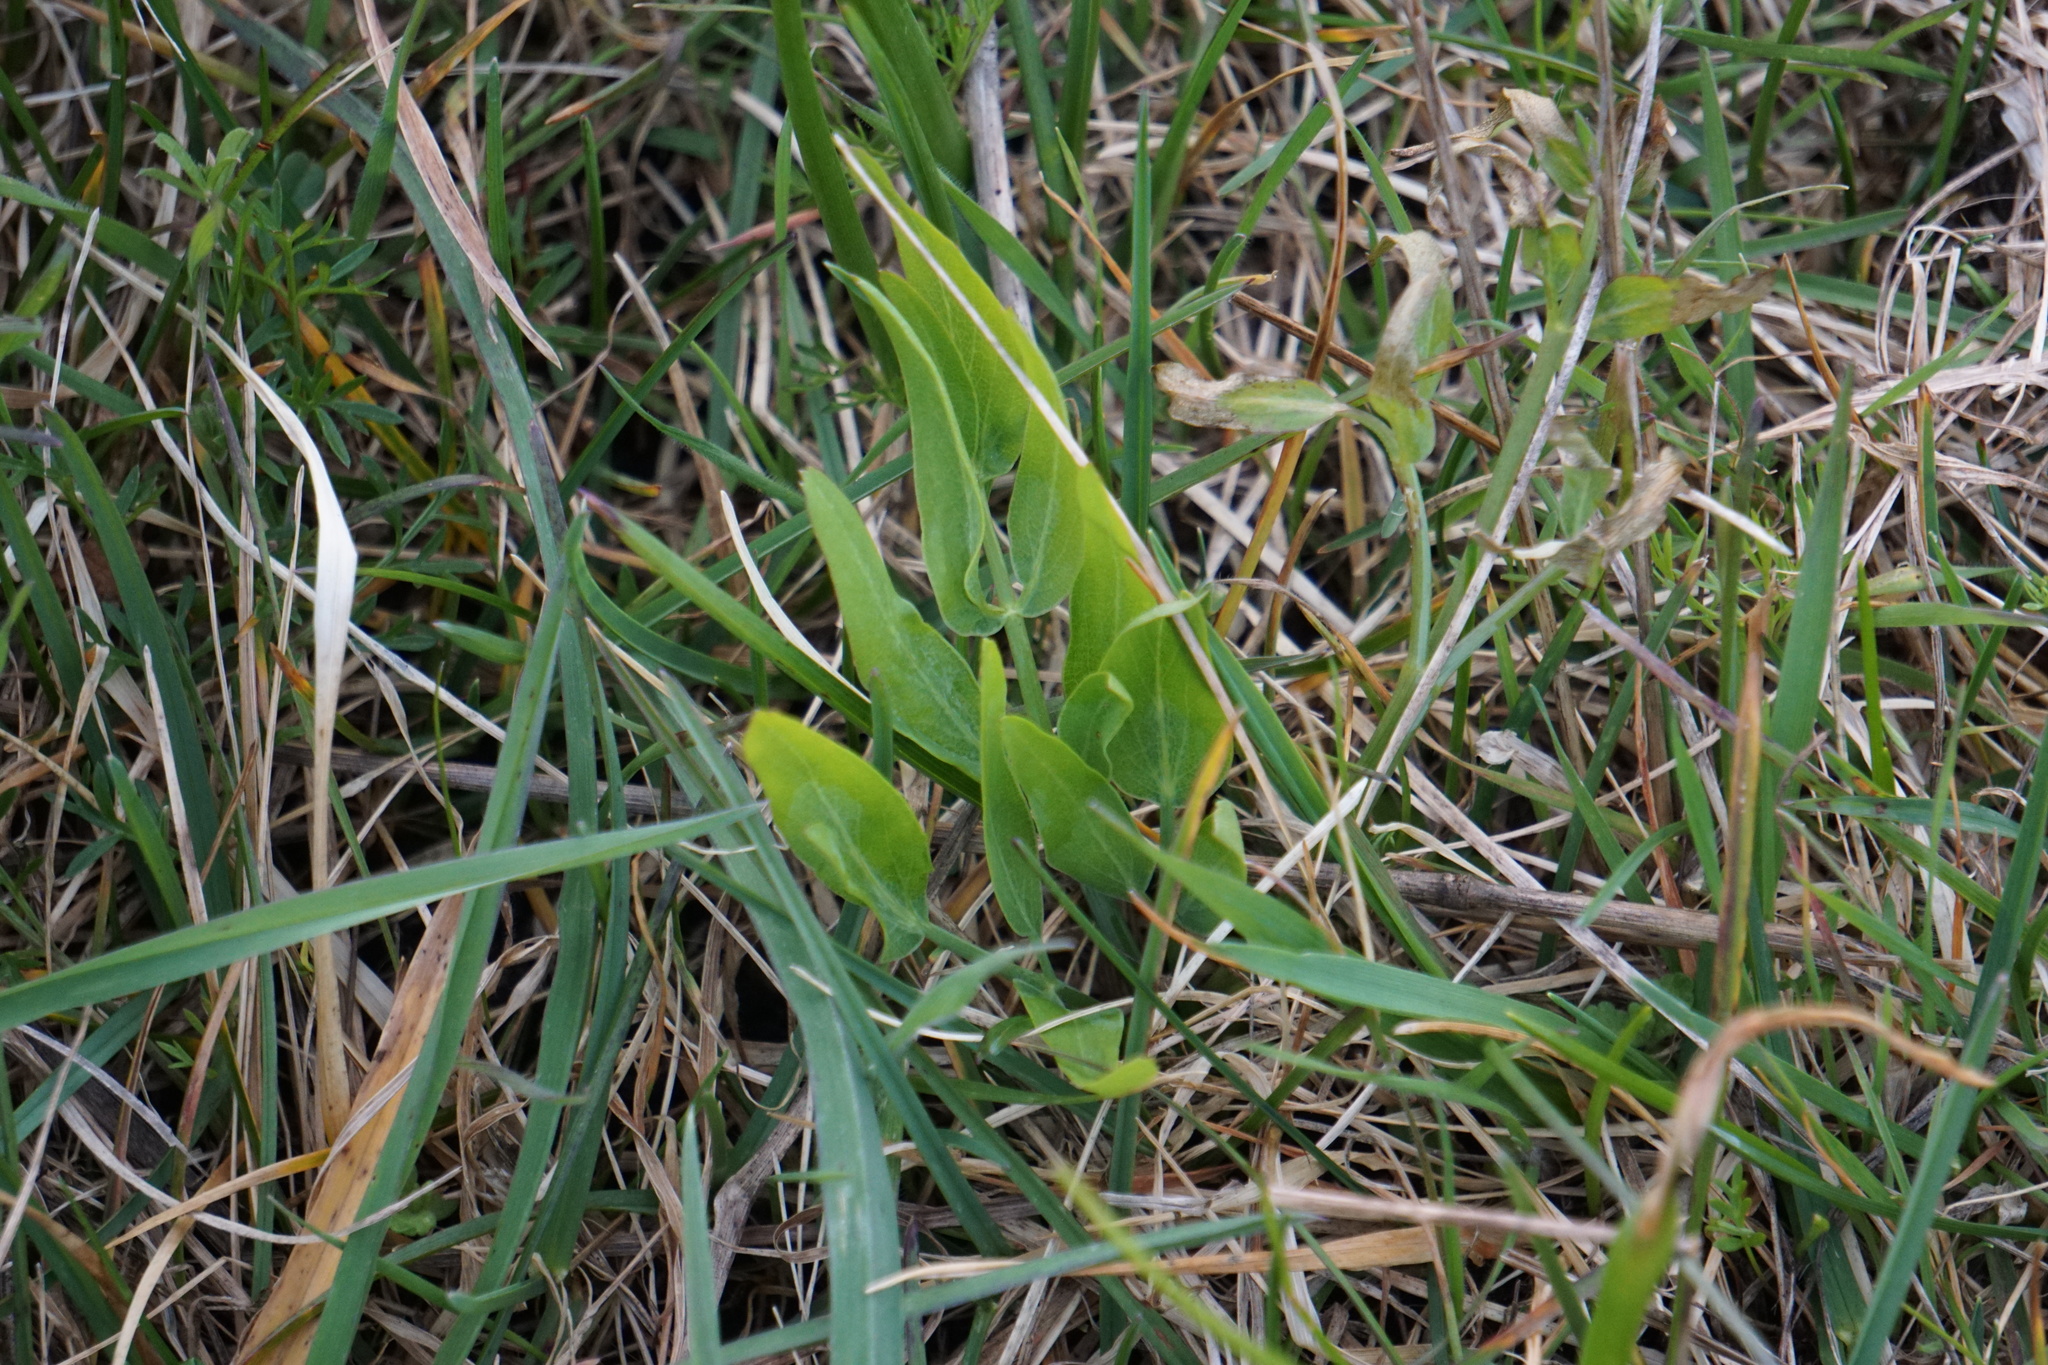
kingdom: Plantae
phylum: Tracheophyta
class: Magnoliopsida
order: Apiales
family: Apiaceae
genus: Lomatium
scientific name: Lomatium nudicaule
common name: Pestle lomatium
